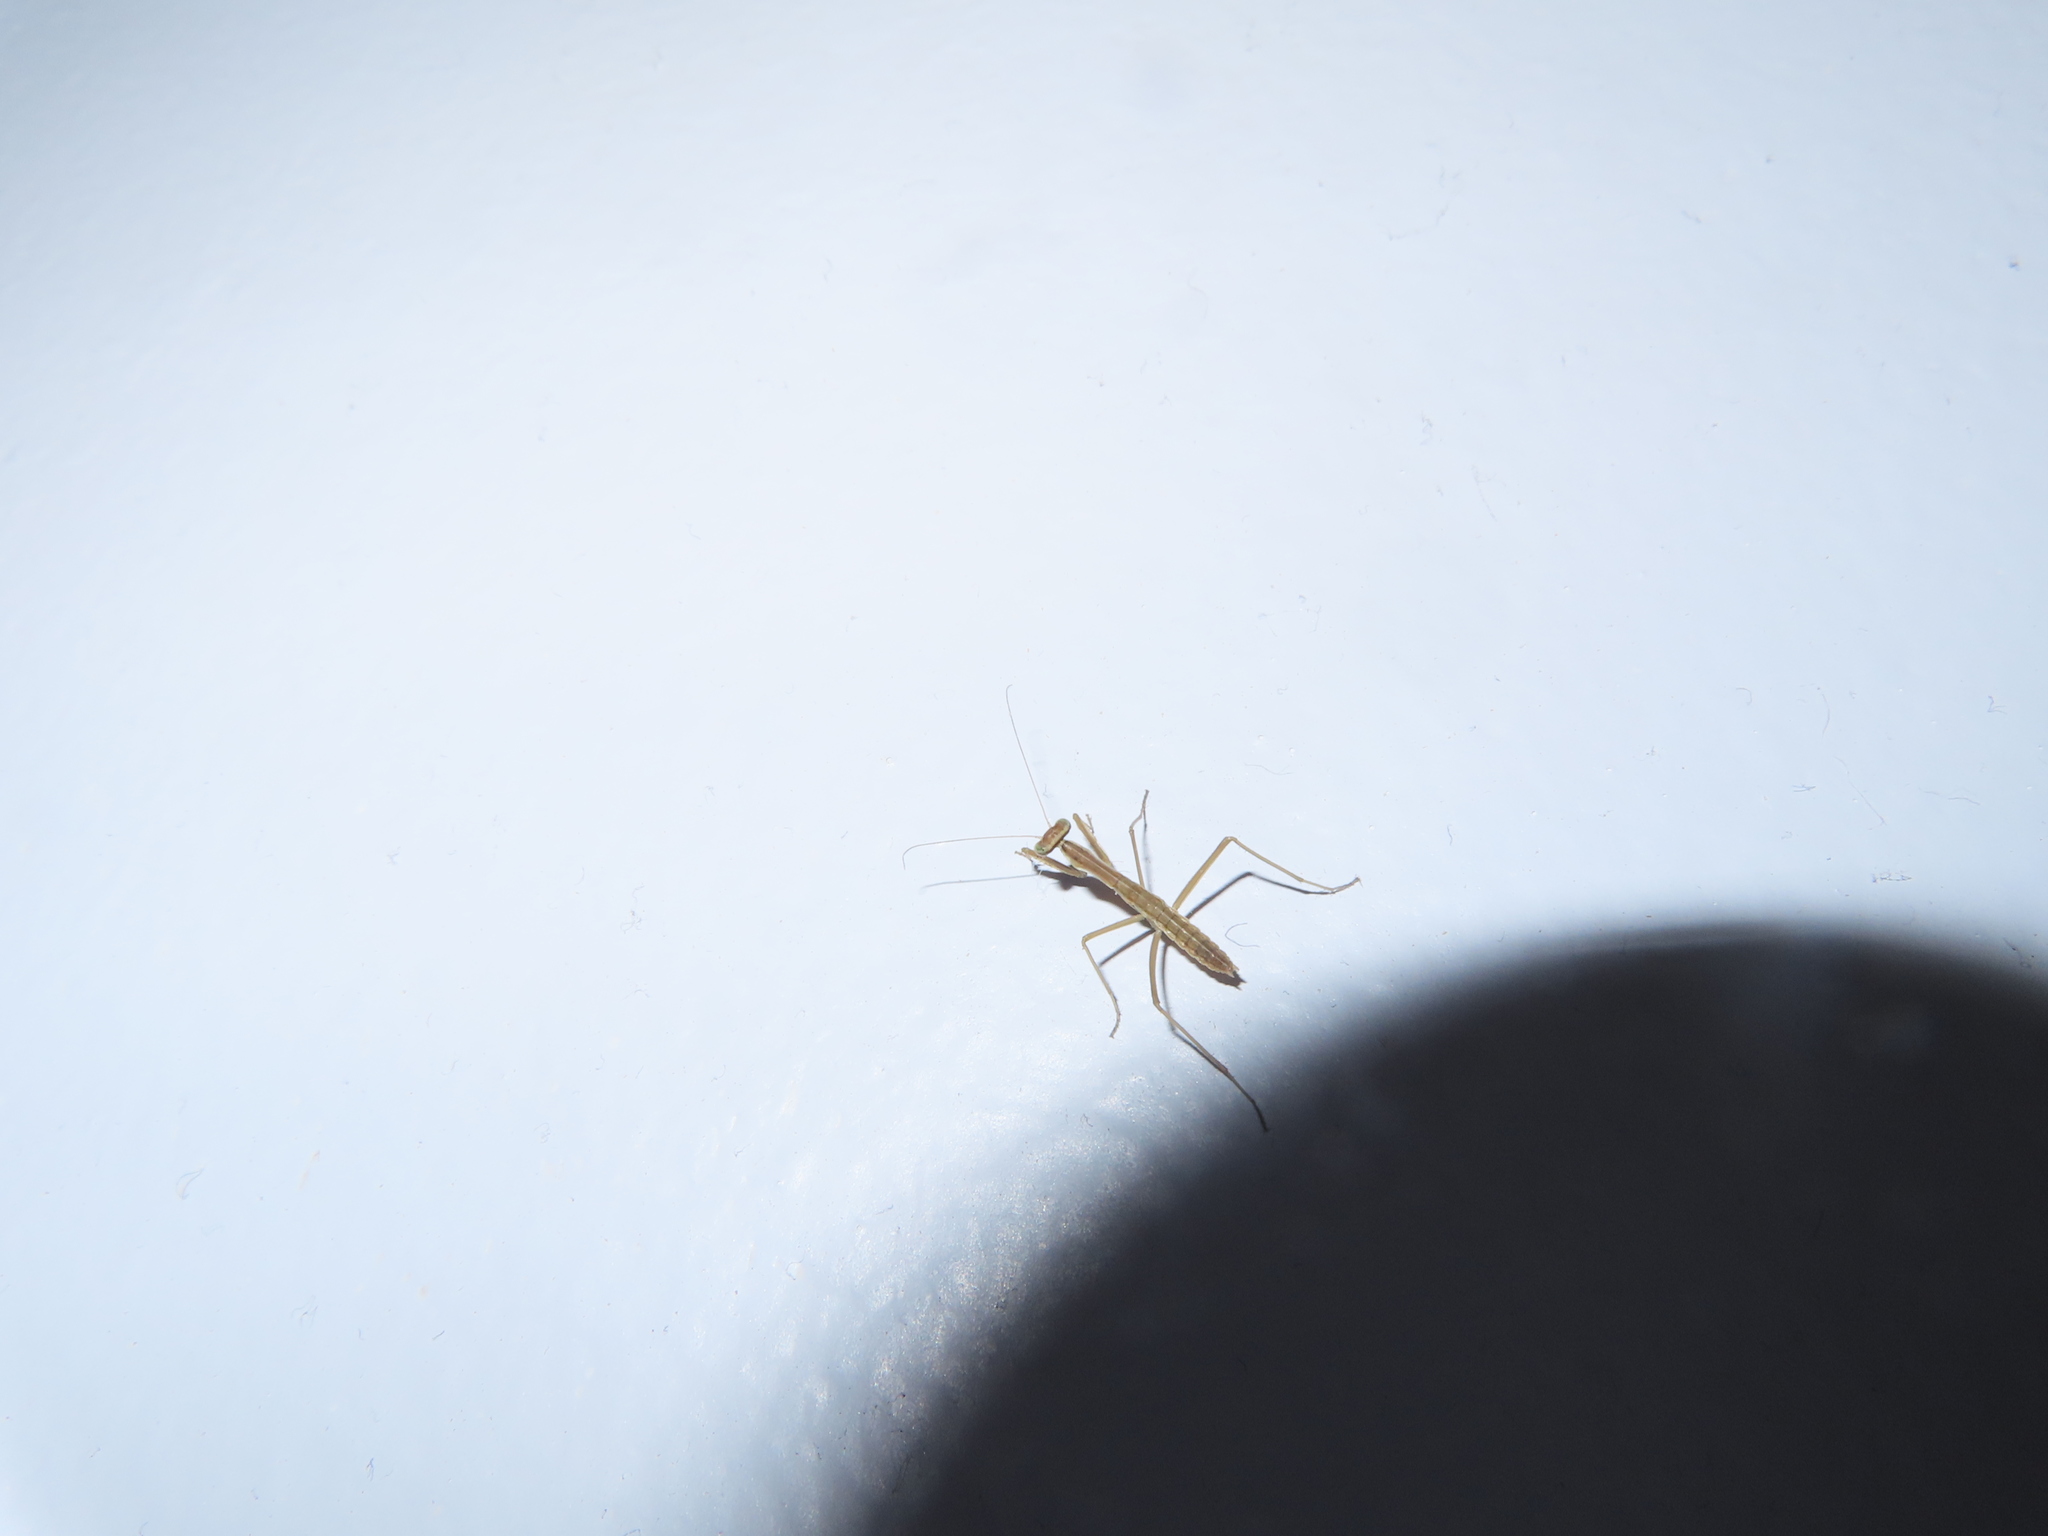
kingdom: Animalia
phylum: Arthropoda
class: Insecta
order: Mantodea
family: Mantidae
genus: Tenodera
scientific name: Tenodera sinensis
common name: Chinese mantis
